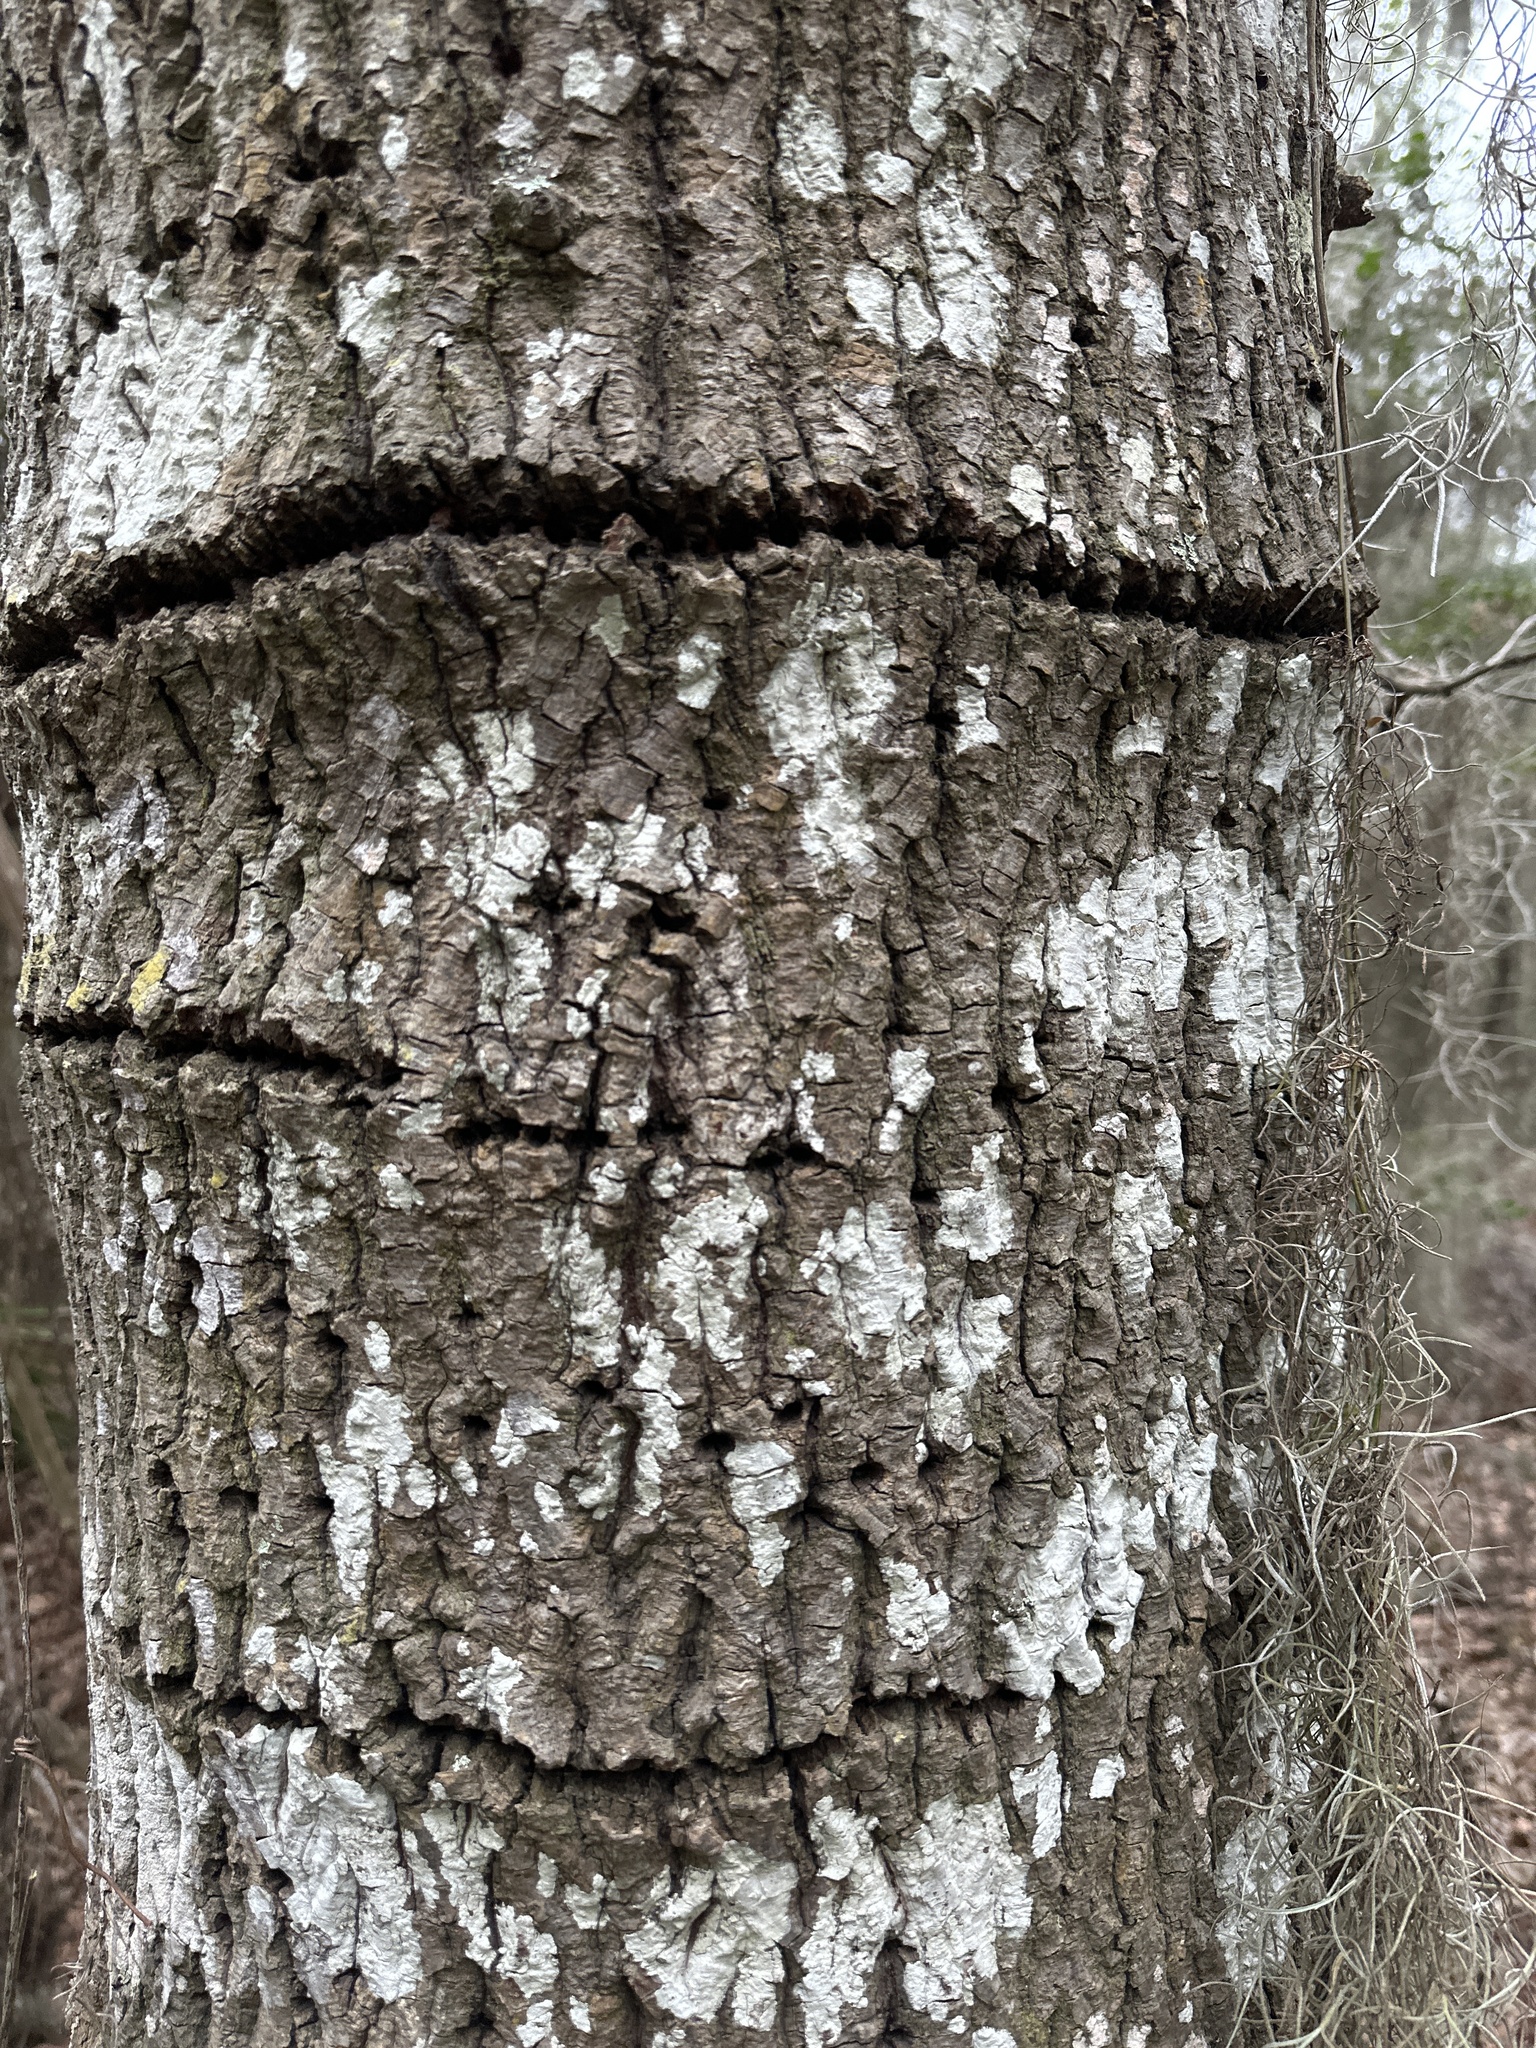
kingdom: Animalia
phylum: Chordata
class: Aves
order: Piciformes
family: Picidae
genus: Sphyrapicus
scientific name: Sphyrapicus varius
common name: Yellow-bellied sapsucker
